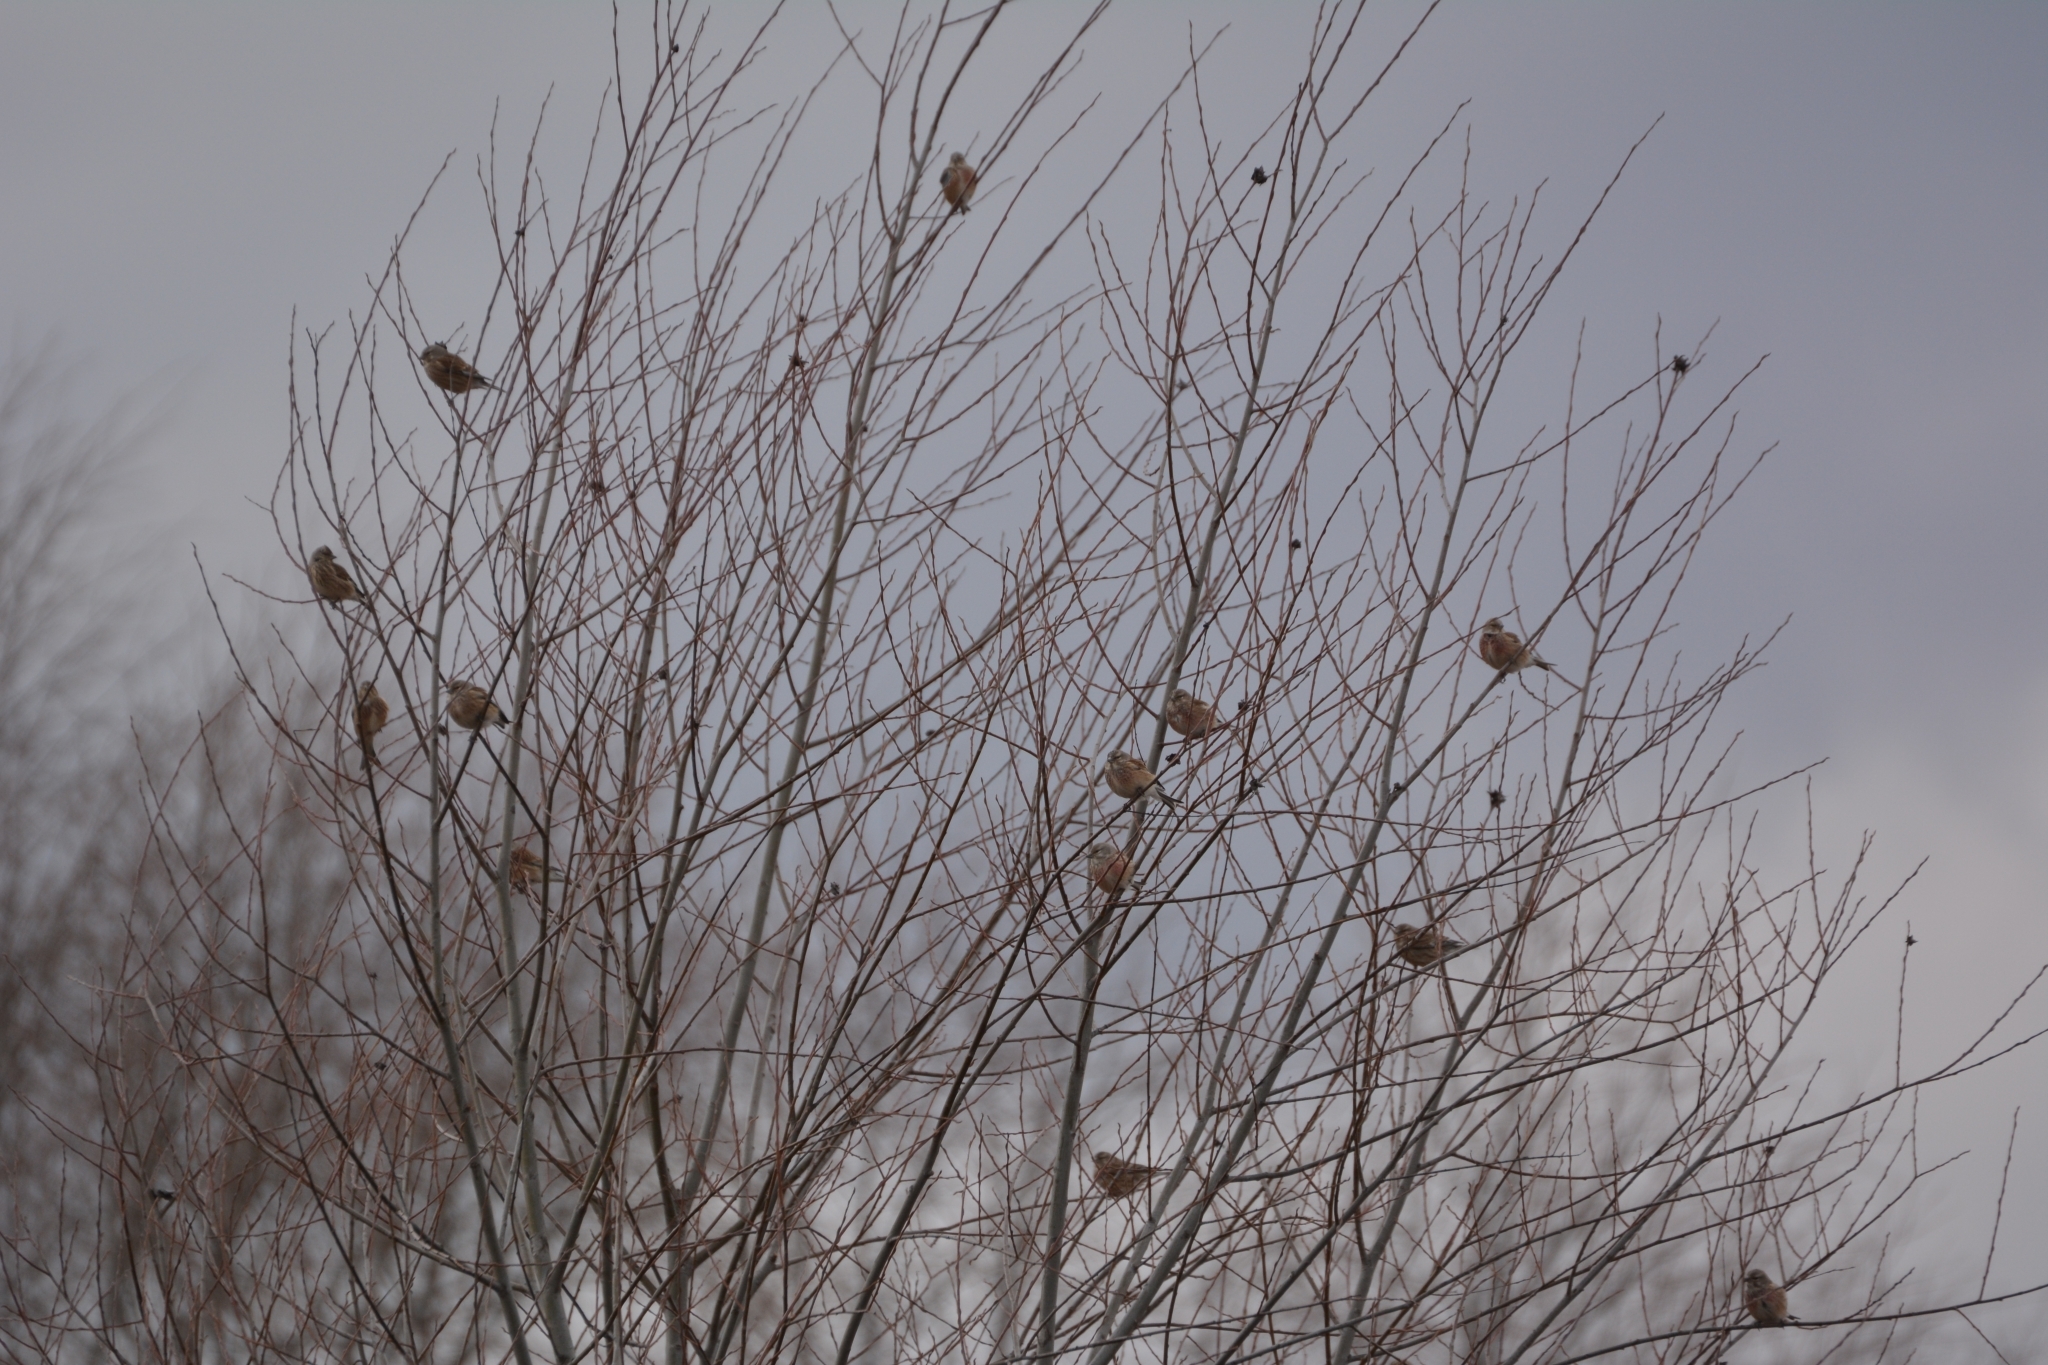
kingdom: Animalia
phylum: Chordata
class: Aves
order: Passeriformes
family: Fringillidae
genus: Linaria
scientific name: Linaria cannabina
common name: Common linnet
